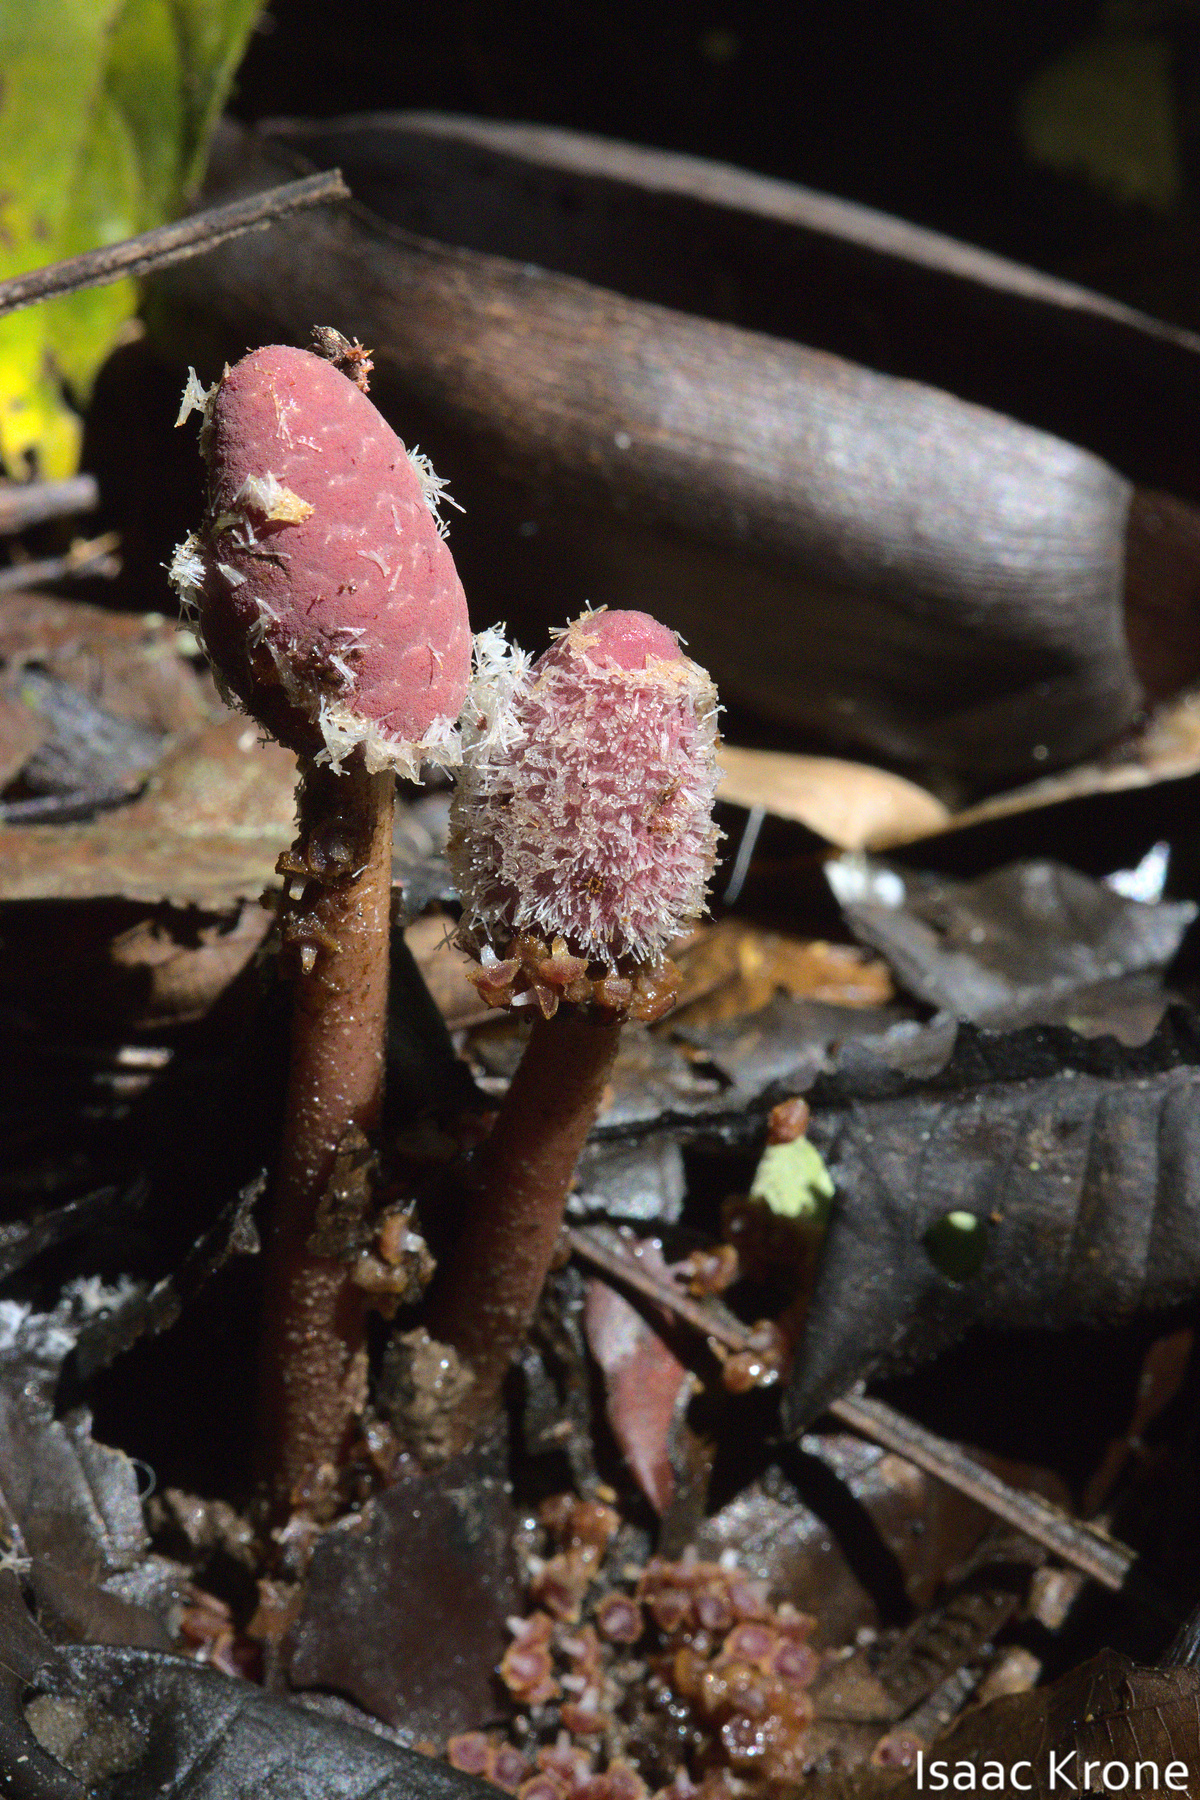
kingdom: Plantae
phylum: Tracheophyta
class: Magnoliopsida
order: Santalales
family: Balanophoraceae
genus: Helosis
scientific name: Helosis cayennensis
